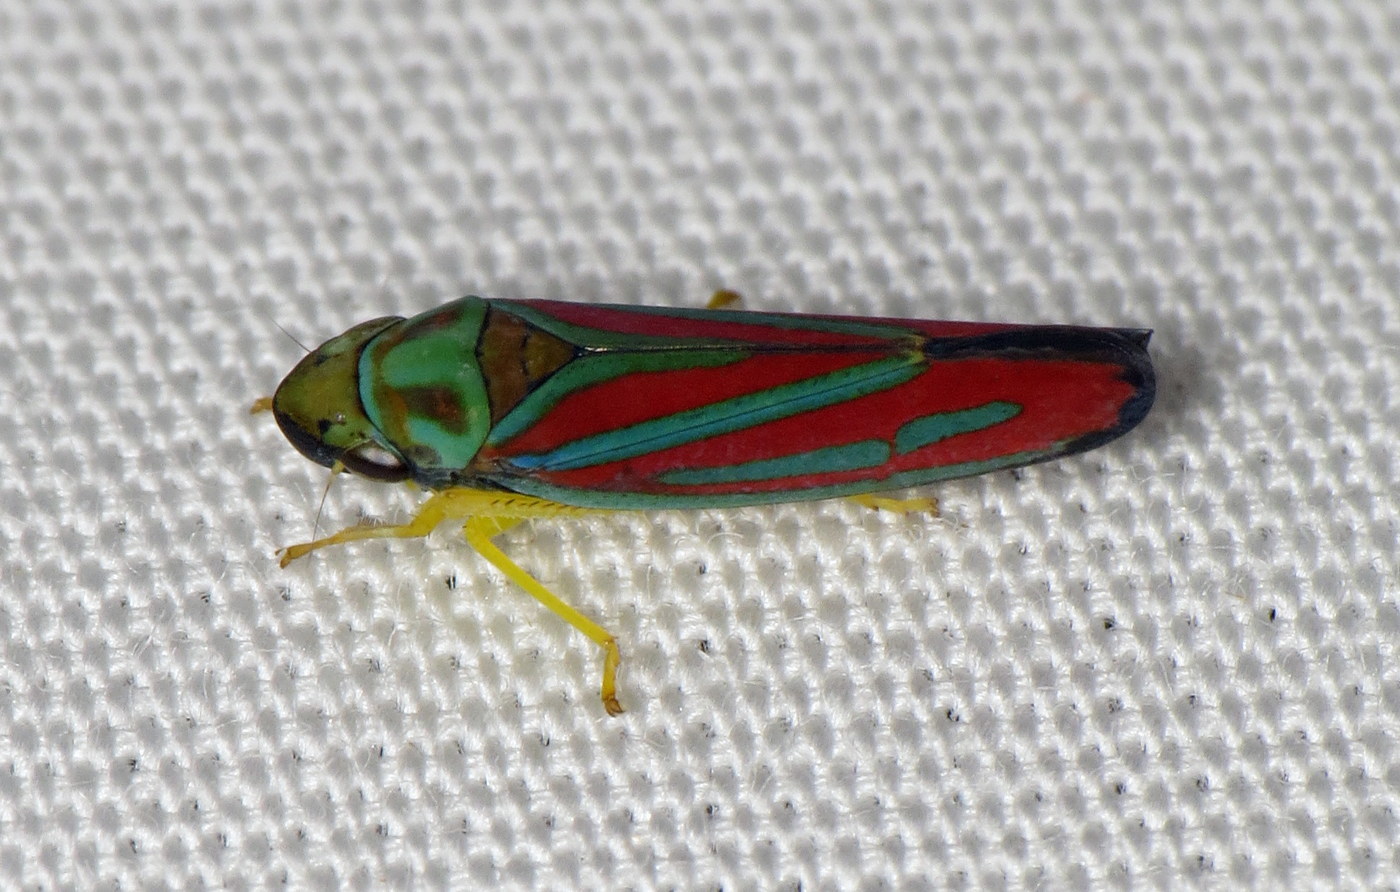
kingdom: Animalia
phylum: Arthropoda
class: Insecta
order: Hemiptera
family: Cicadellidae
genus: Graphocephala
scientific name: Graphocephala coccinea
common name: Candy-striped leafhopper
